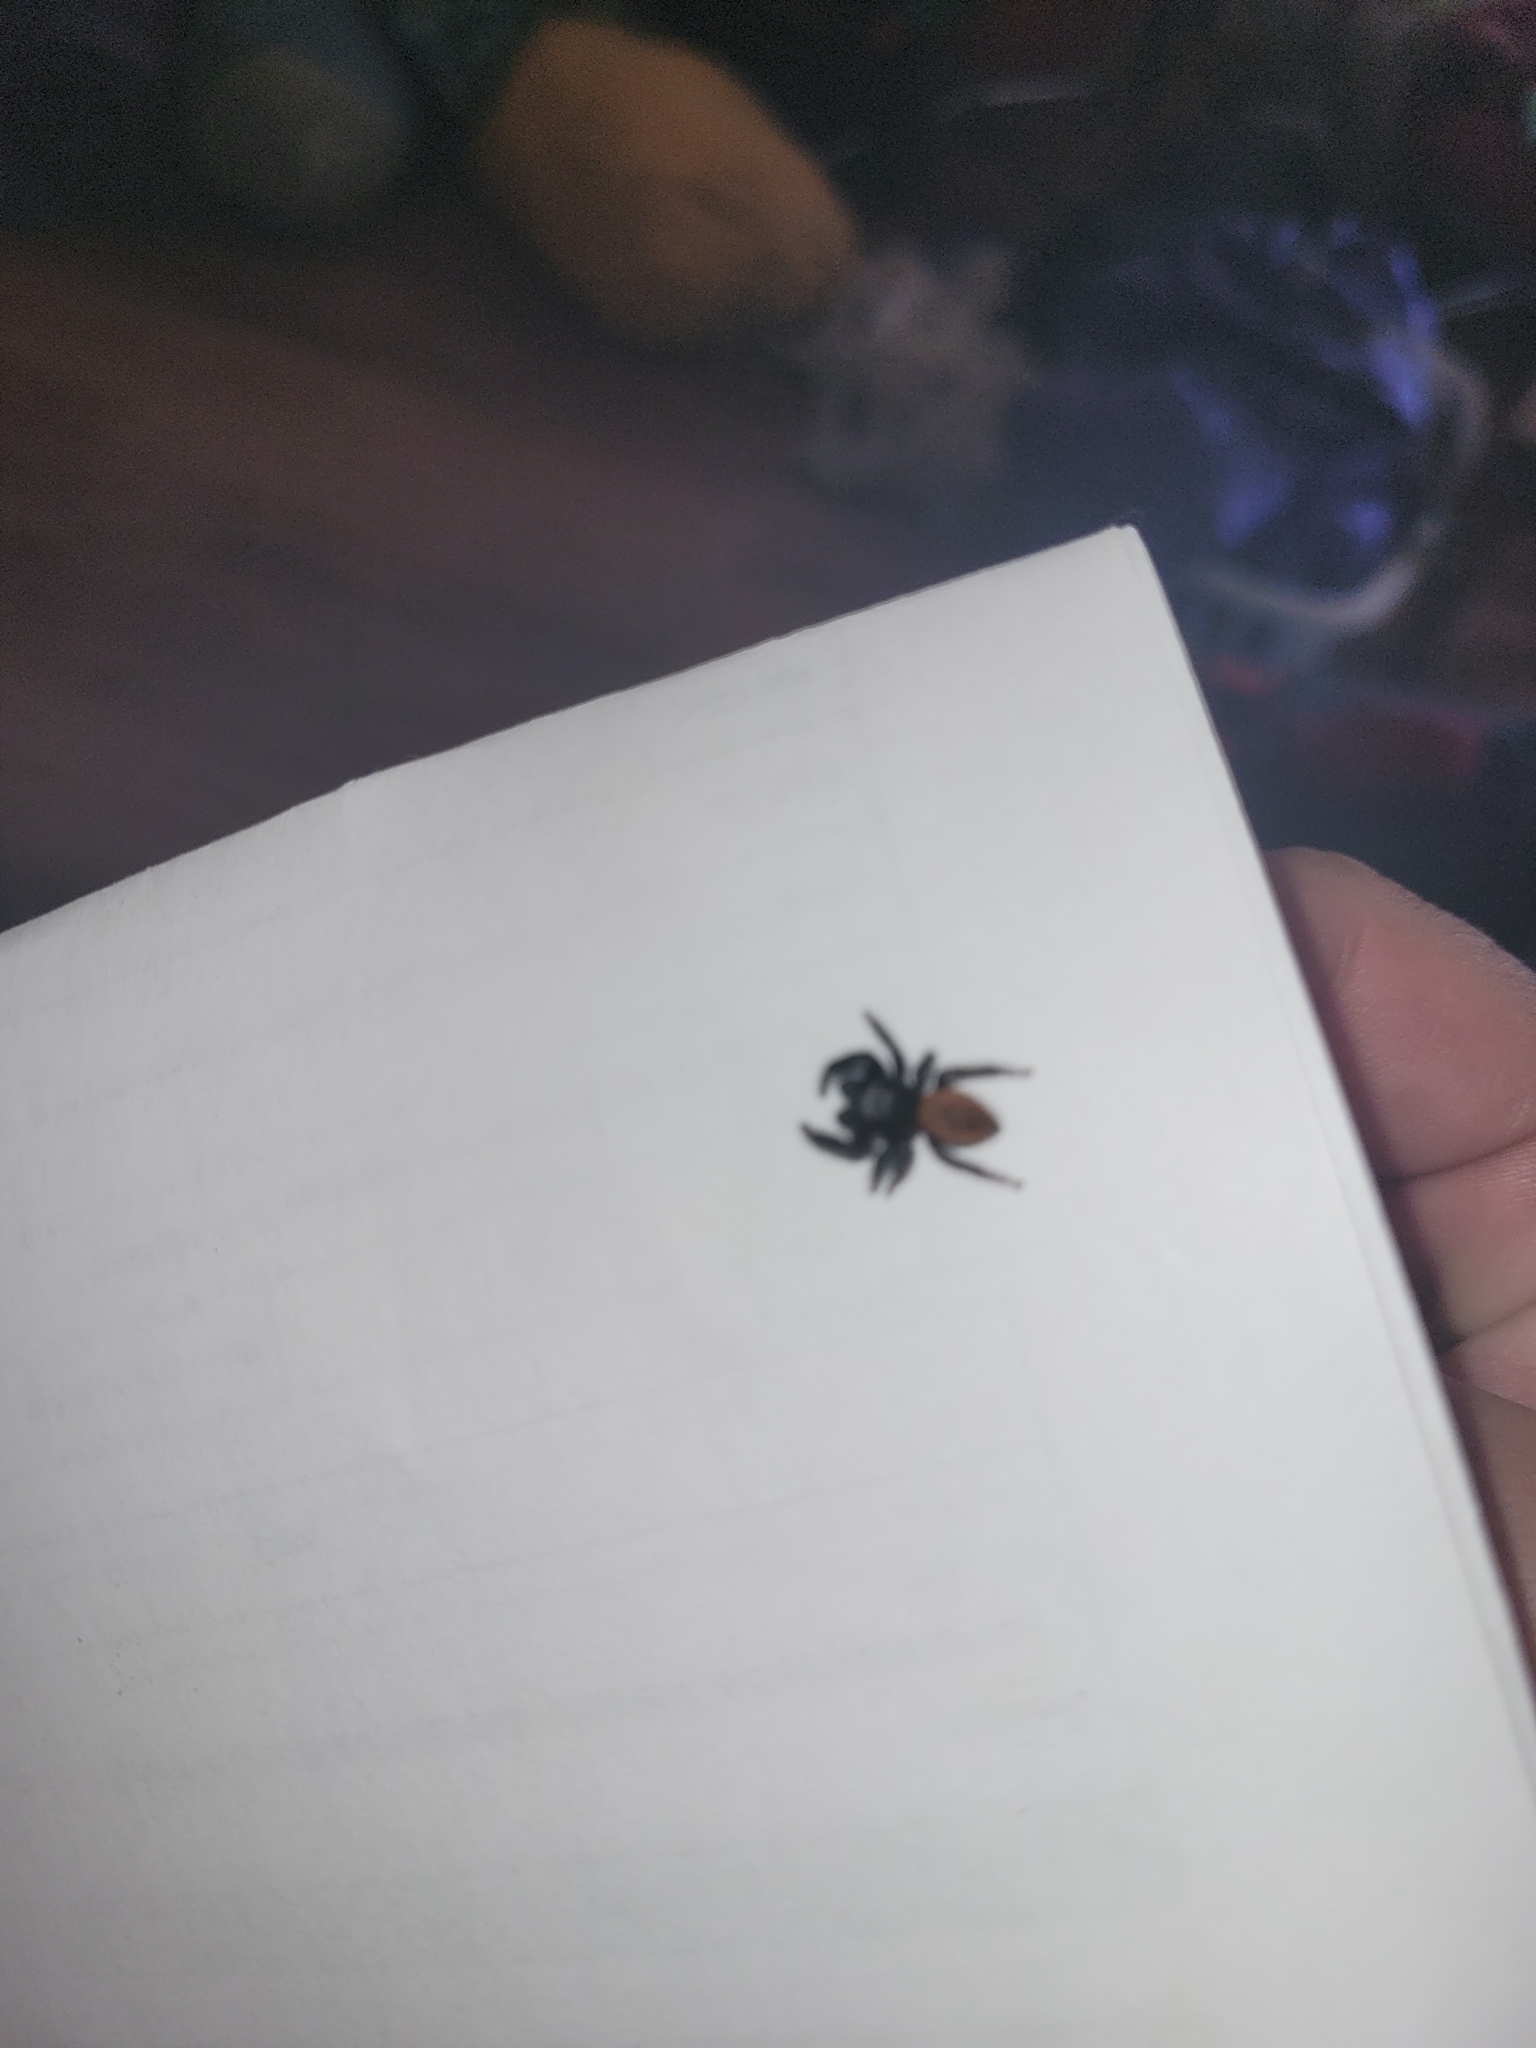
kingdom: Animalia
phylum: Arthropoda
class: Arachnida
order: Araneae
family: Salticidae
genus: Phidippus
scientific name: Phidippus johnsoni
